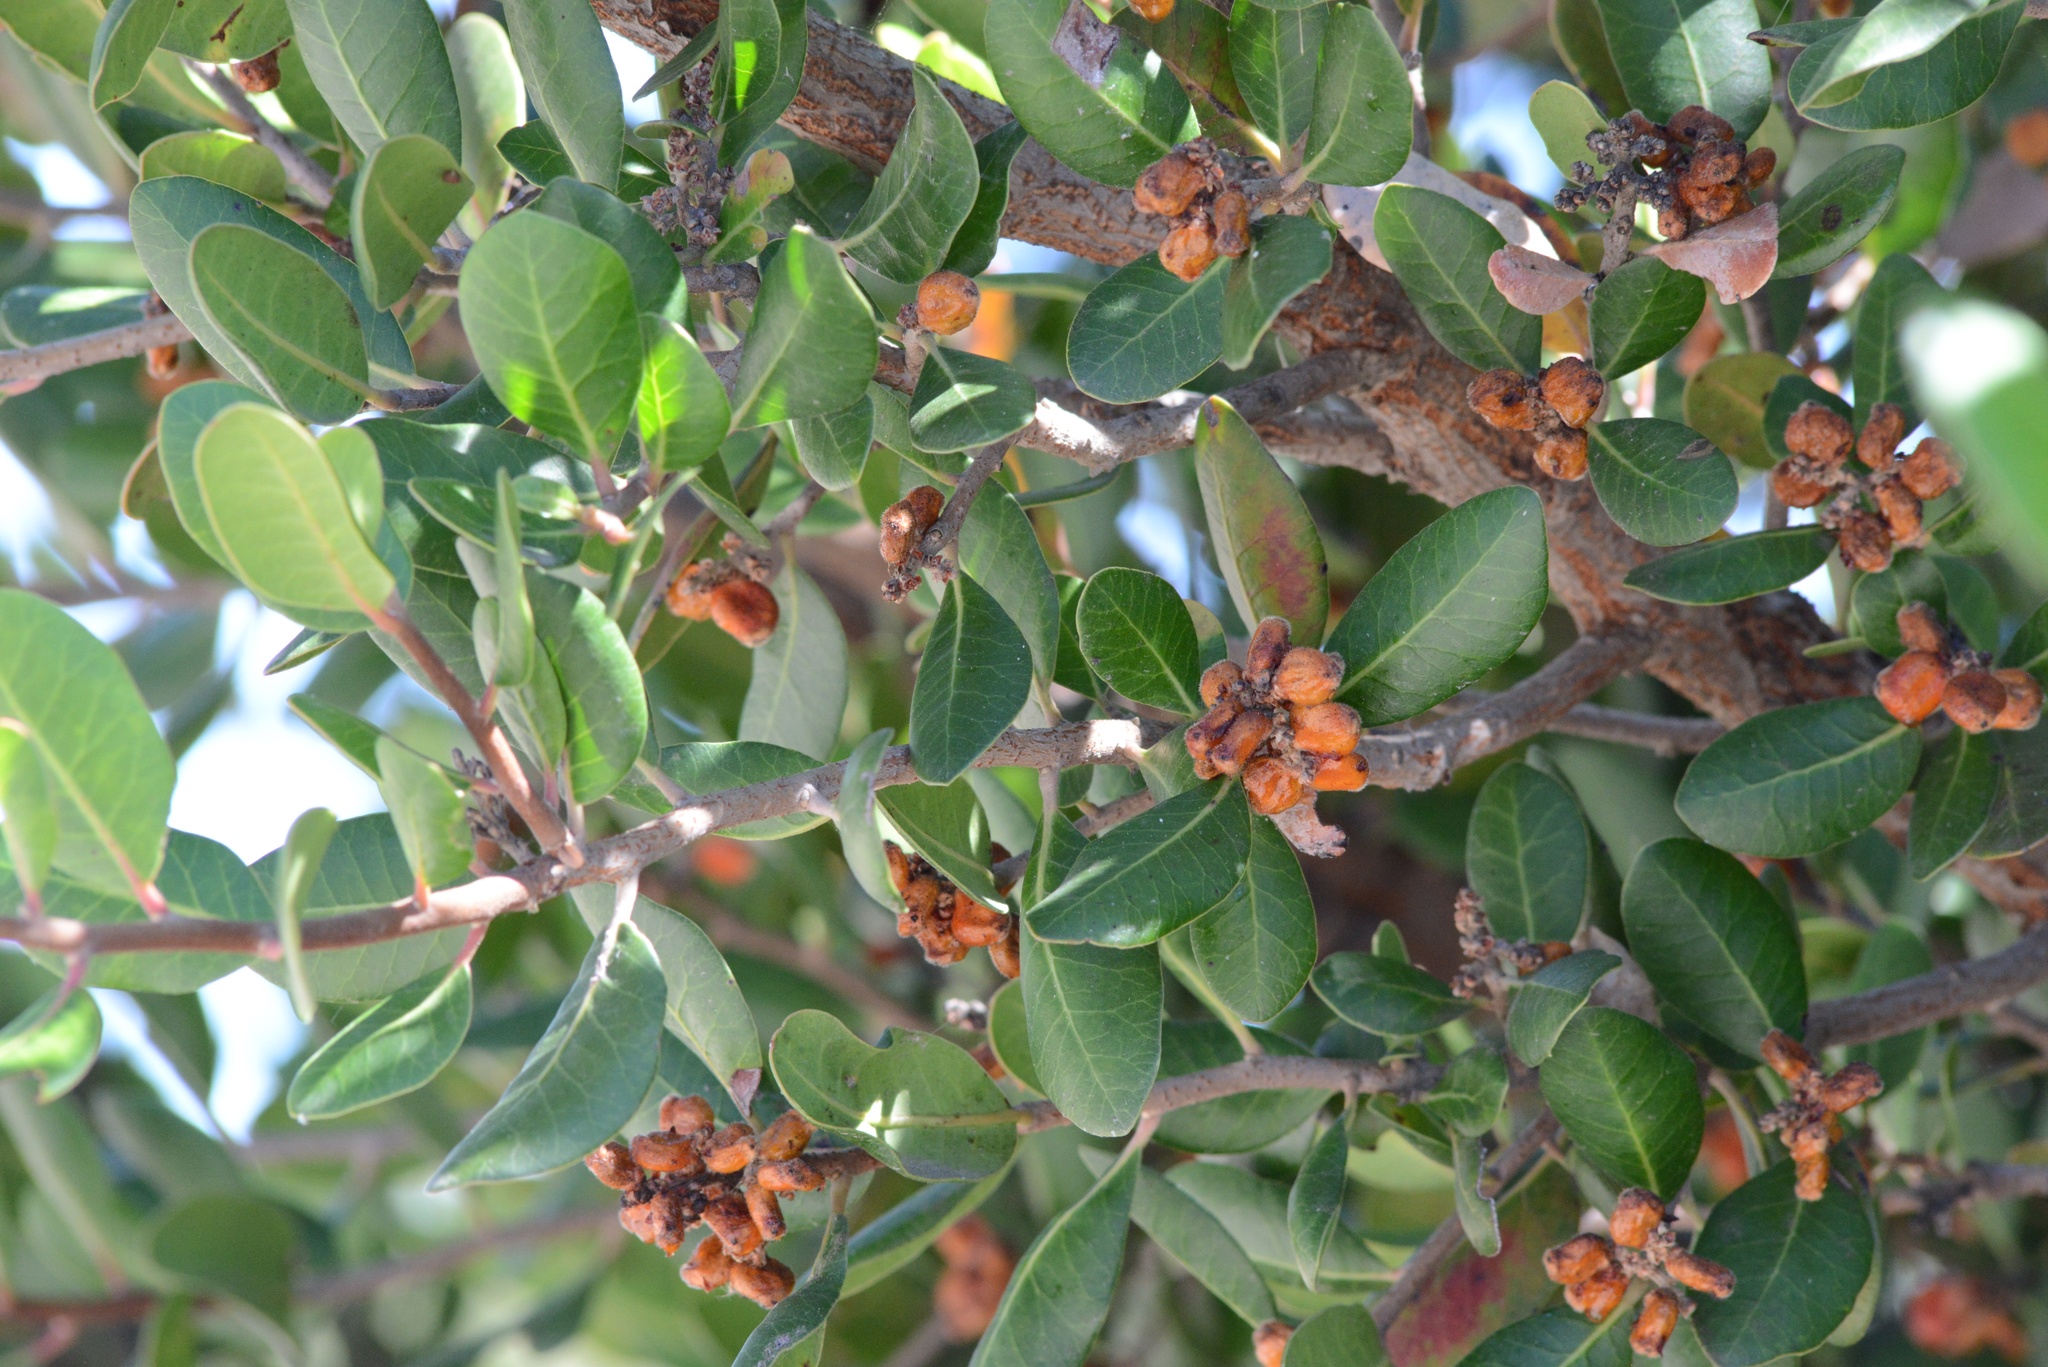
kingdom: Plantae
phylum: Tracheophyta
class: Magnoliopsida
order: Sapindales
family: Anacardiaceae
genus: Rhus
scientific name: Rhus integrifolia
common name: Lemonade sumac
